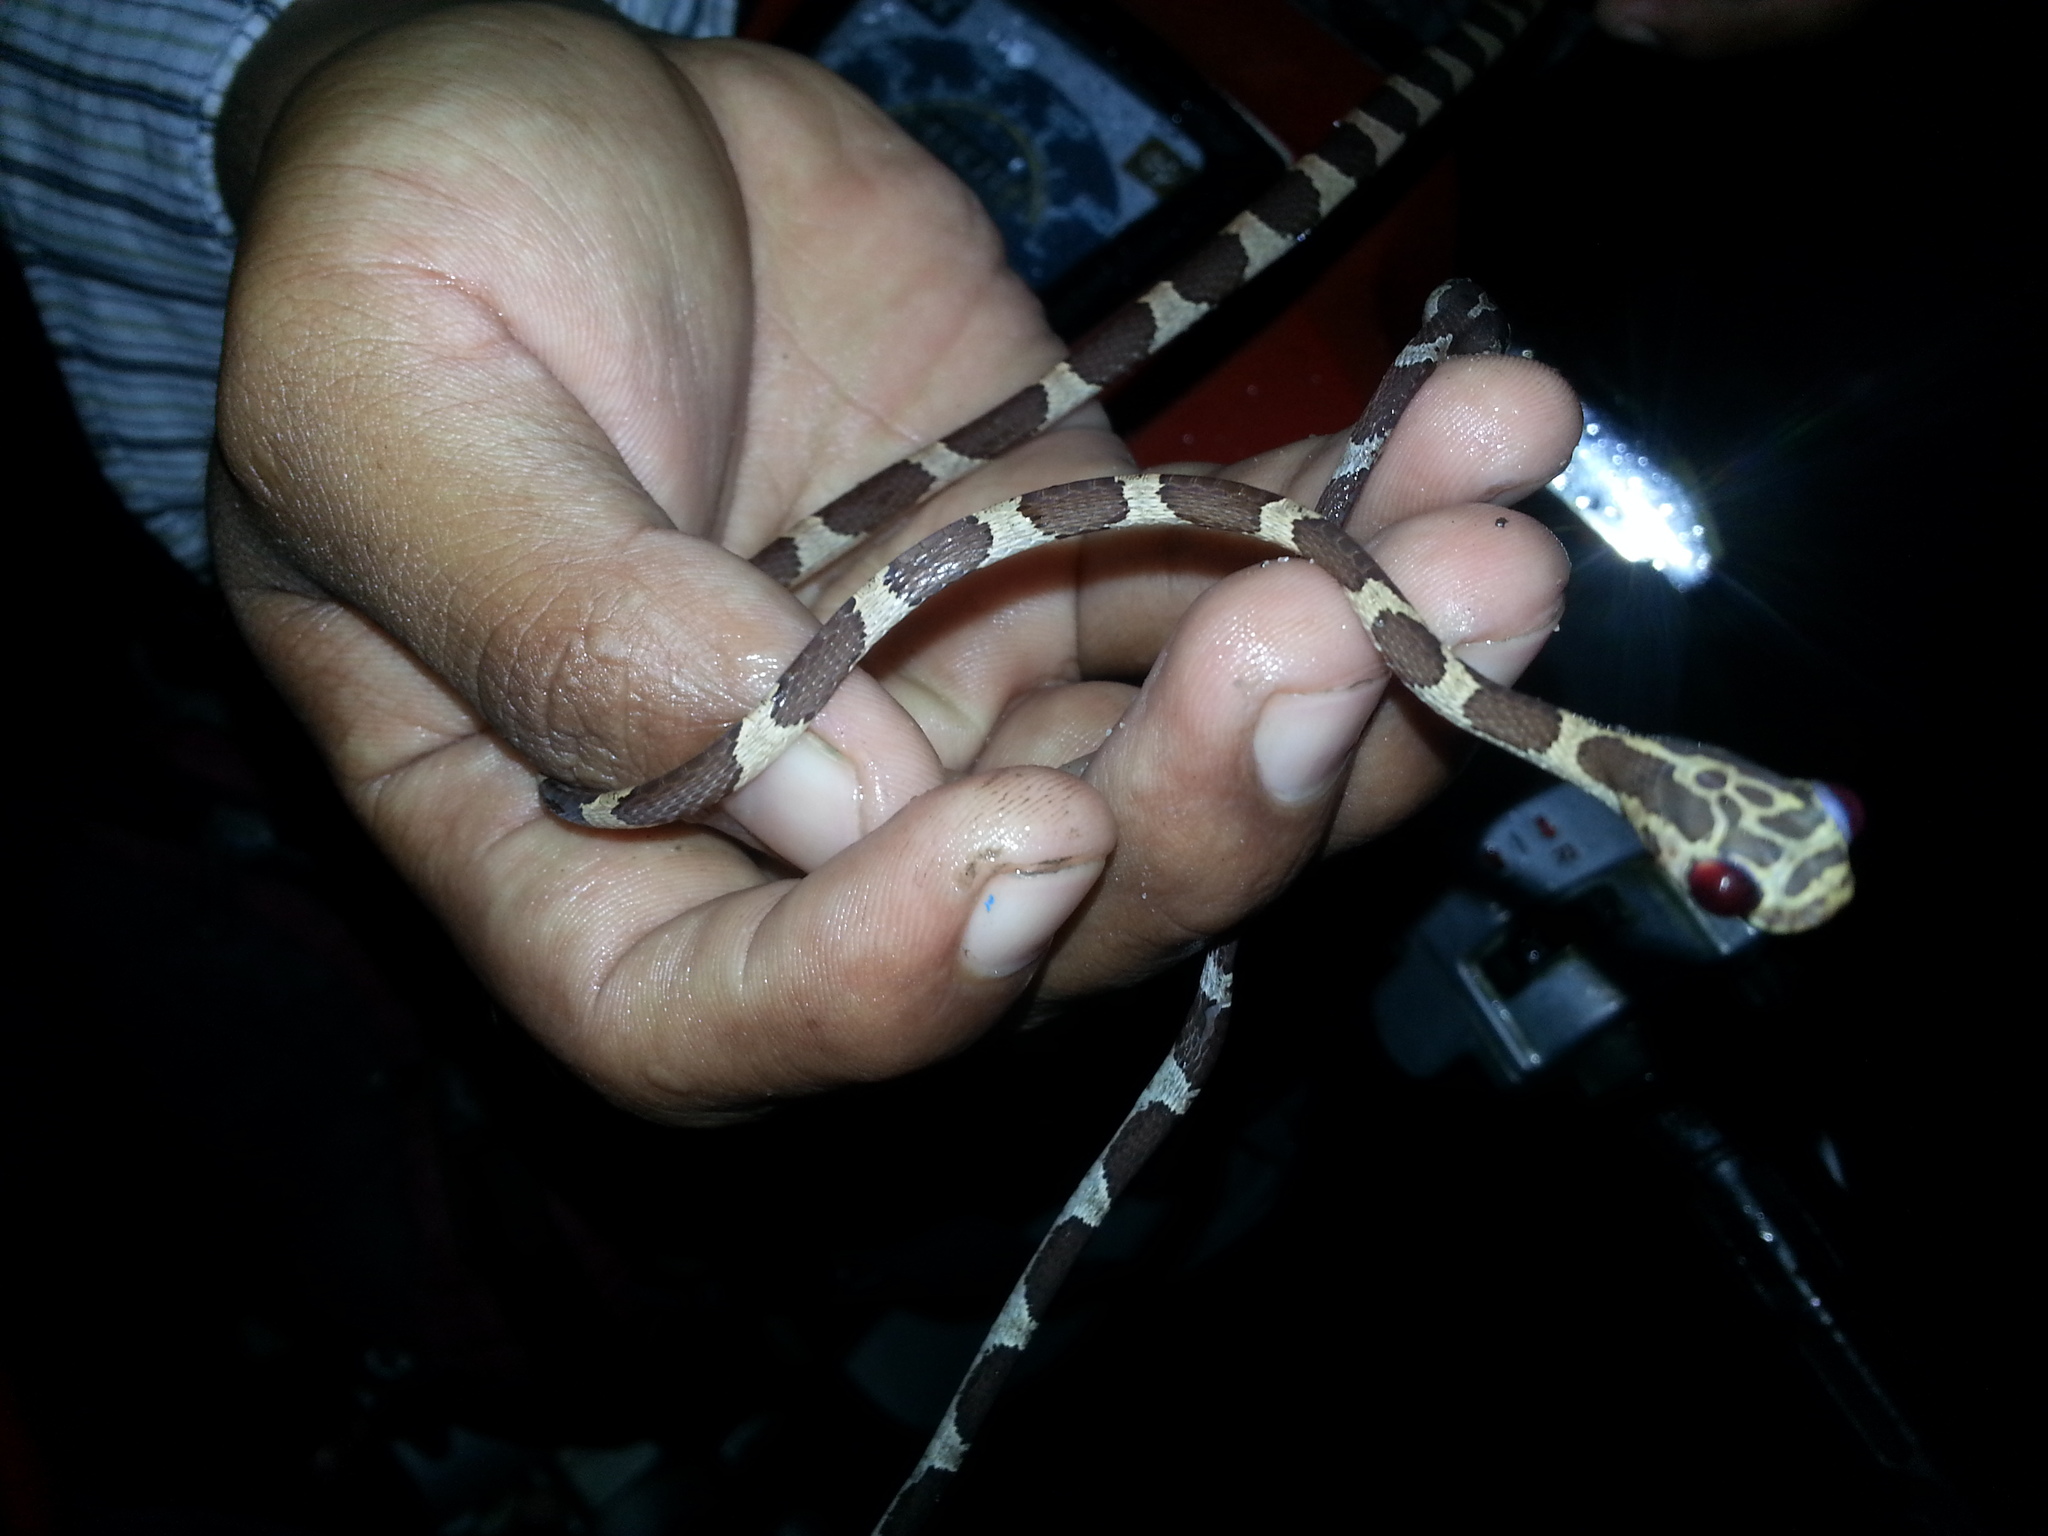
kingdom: Animalia
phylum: Chordata
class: Squamata
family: Colubridae
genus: Imantodes
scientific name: Imantodes cenchoa
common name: Blunthead tree snake
